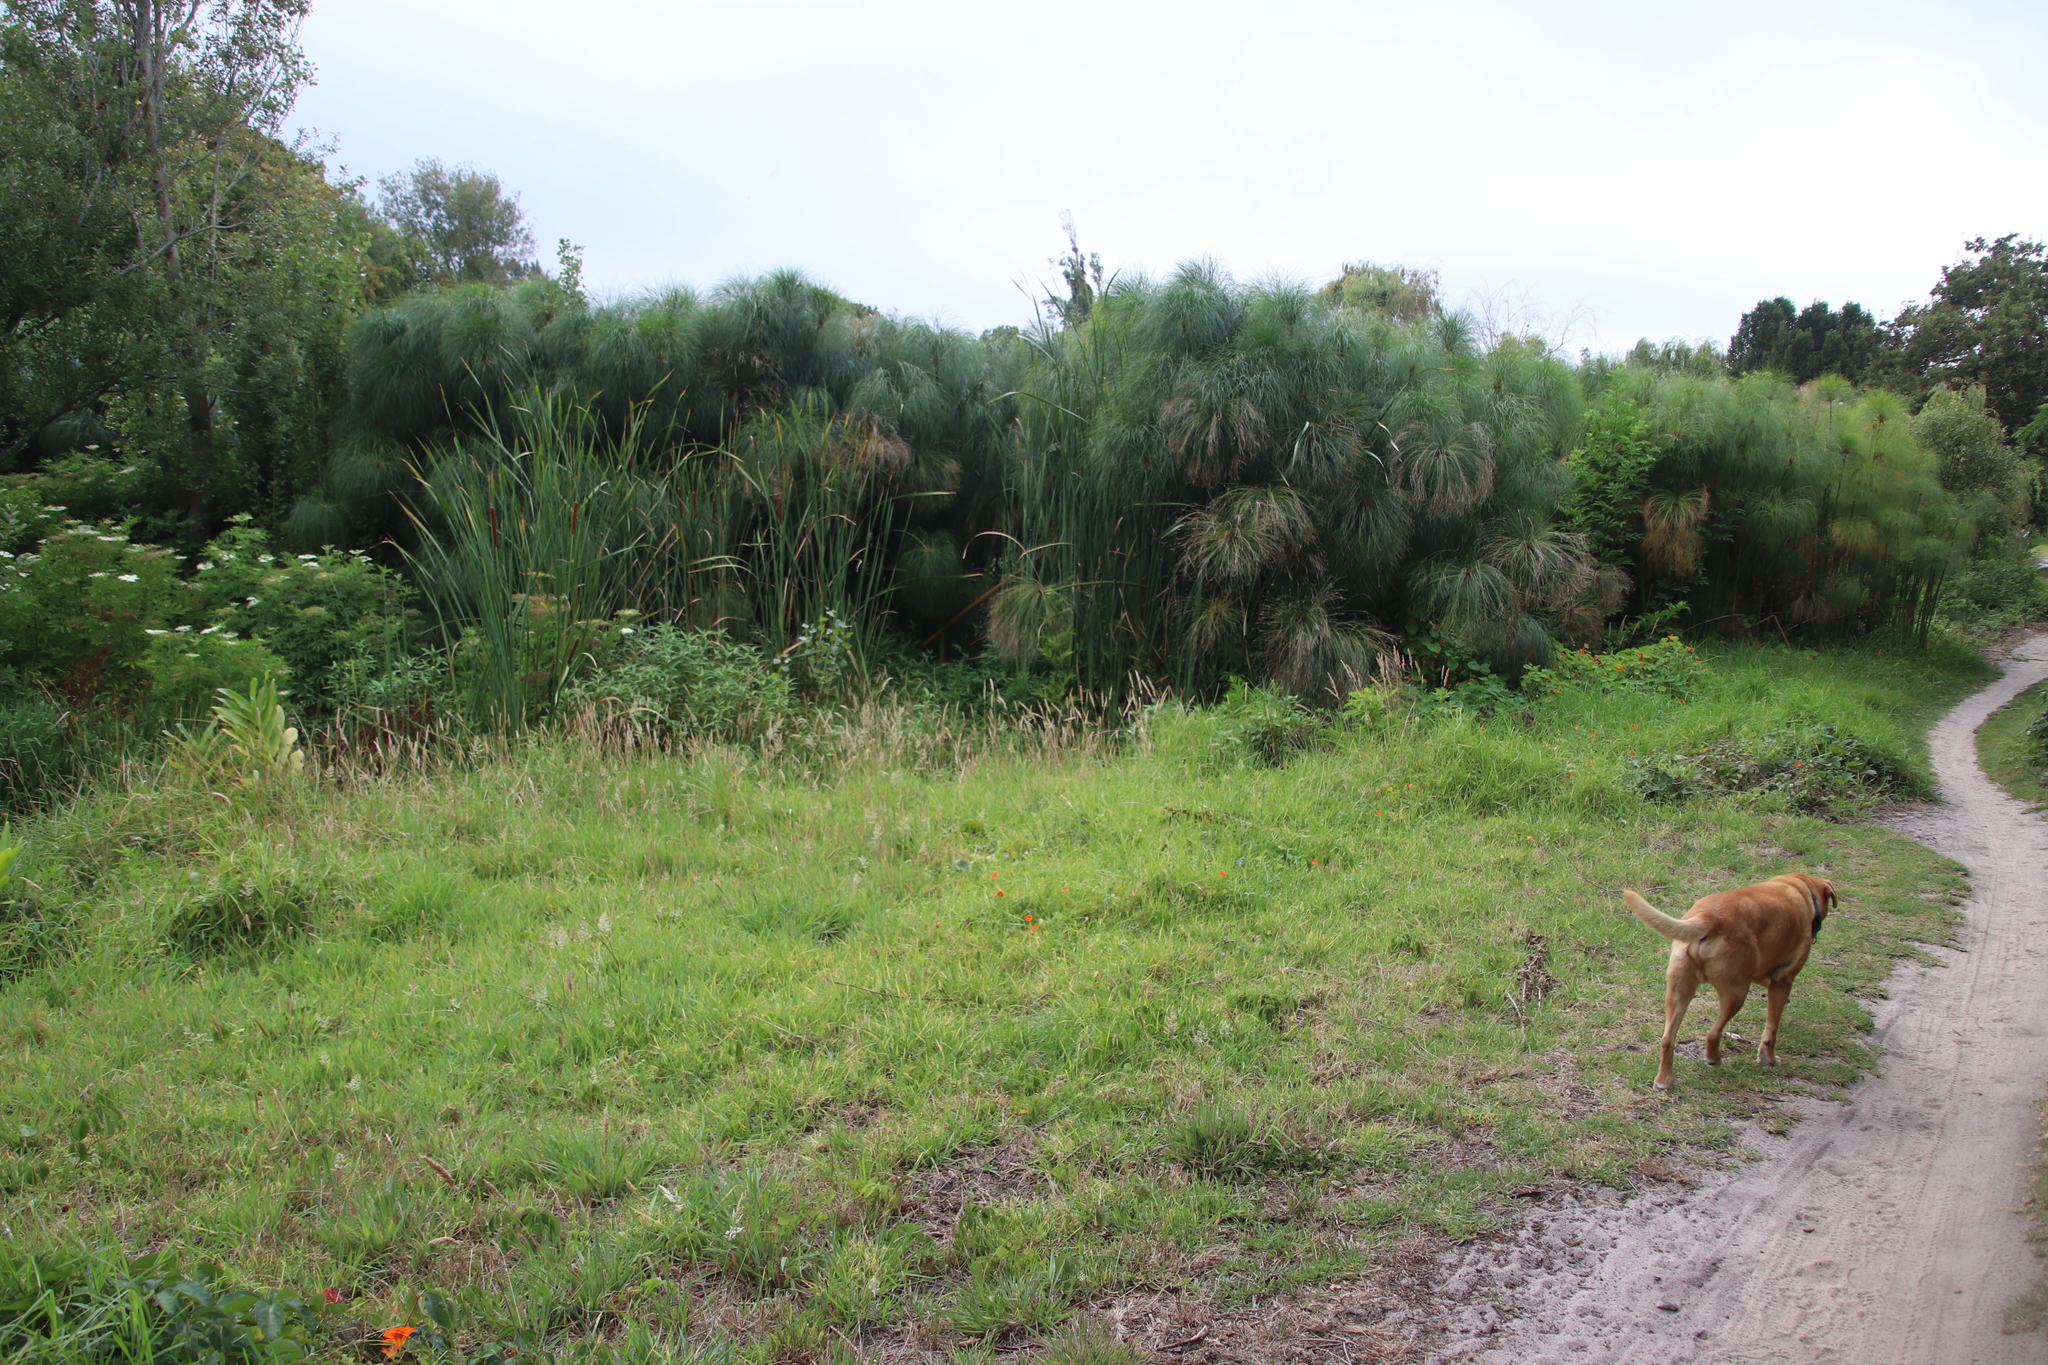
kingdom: Plantae
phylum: Tracheophyta
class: Liliopsida
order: Poales
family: Cyperaceae
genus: Cyperus
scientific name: Cyperus papyrus
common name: Papyrus
